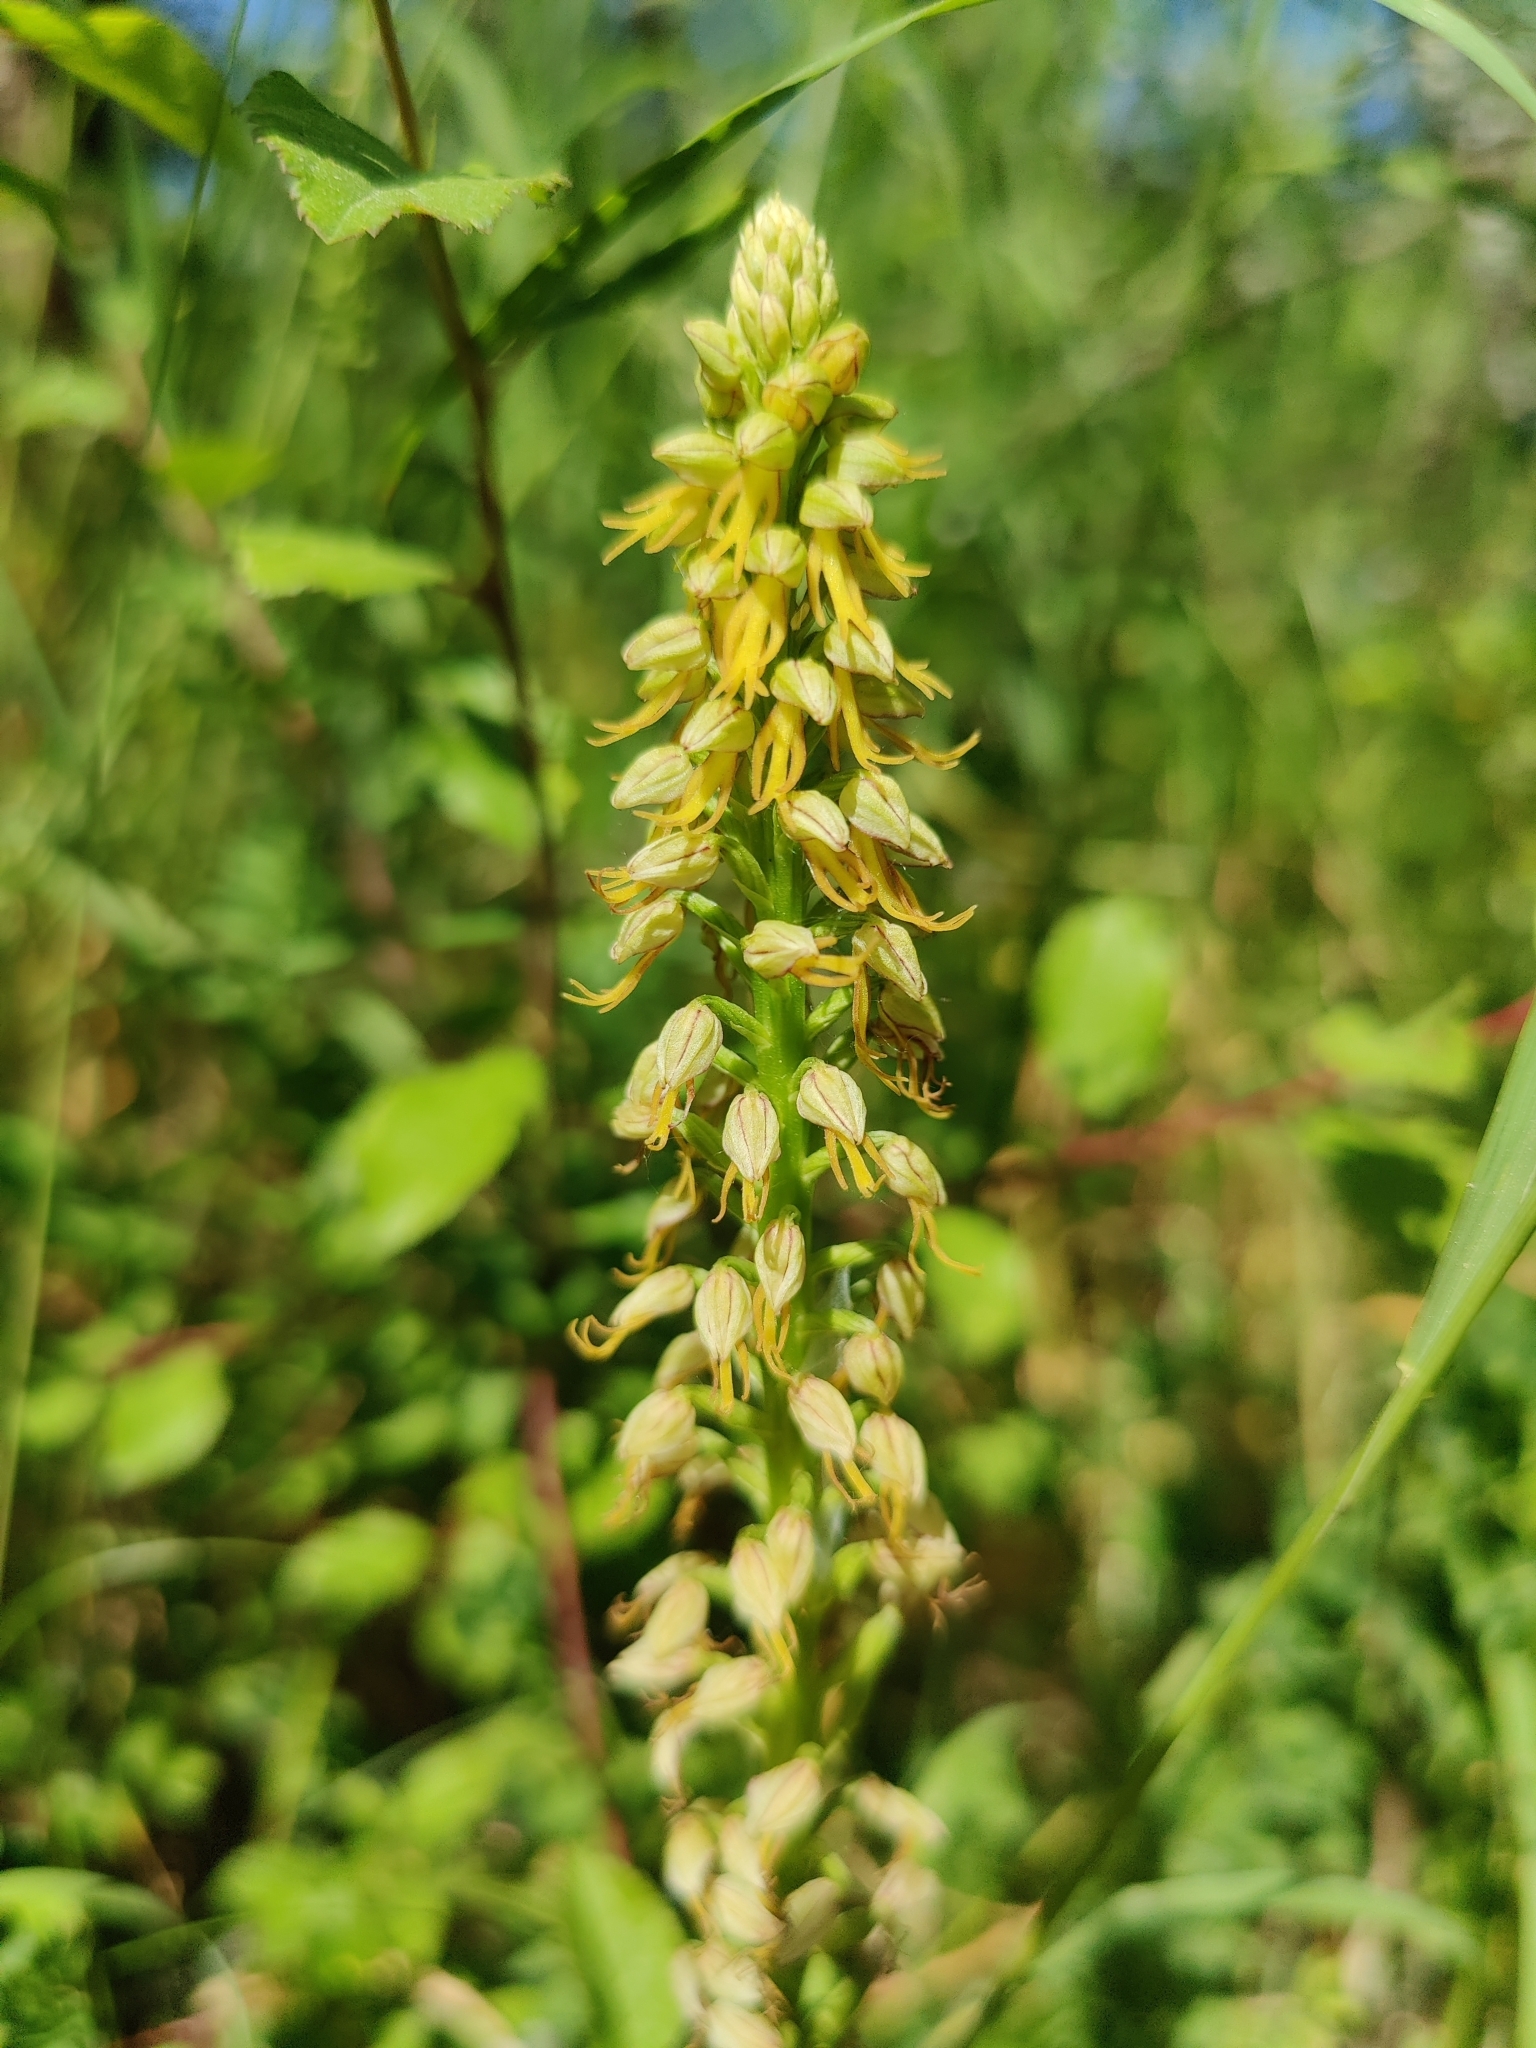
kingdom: Plantae
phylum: Tracheophyta
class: Liliopsida
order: Asparagales
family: Orchidaceae
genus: Orchis
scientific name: Orchis anthropophora
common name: Man orchid
